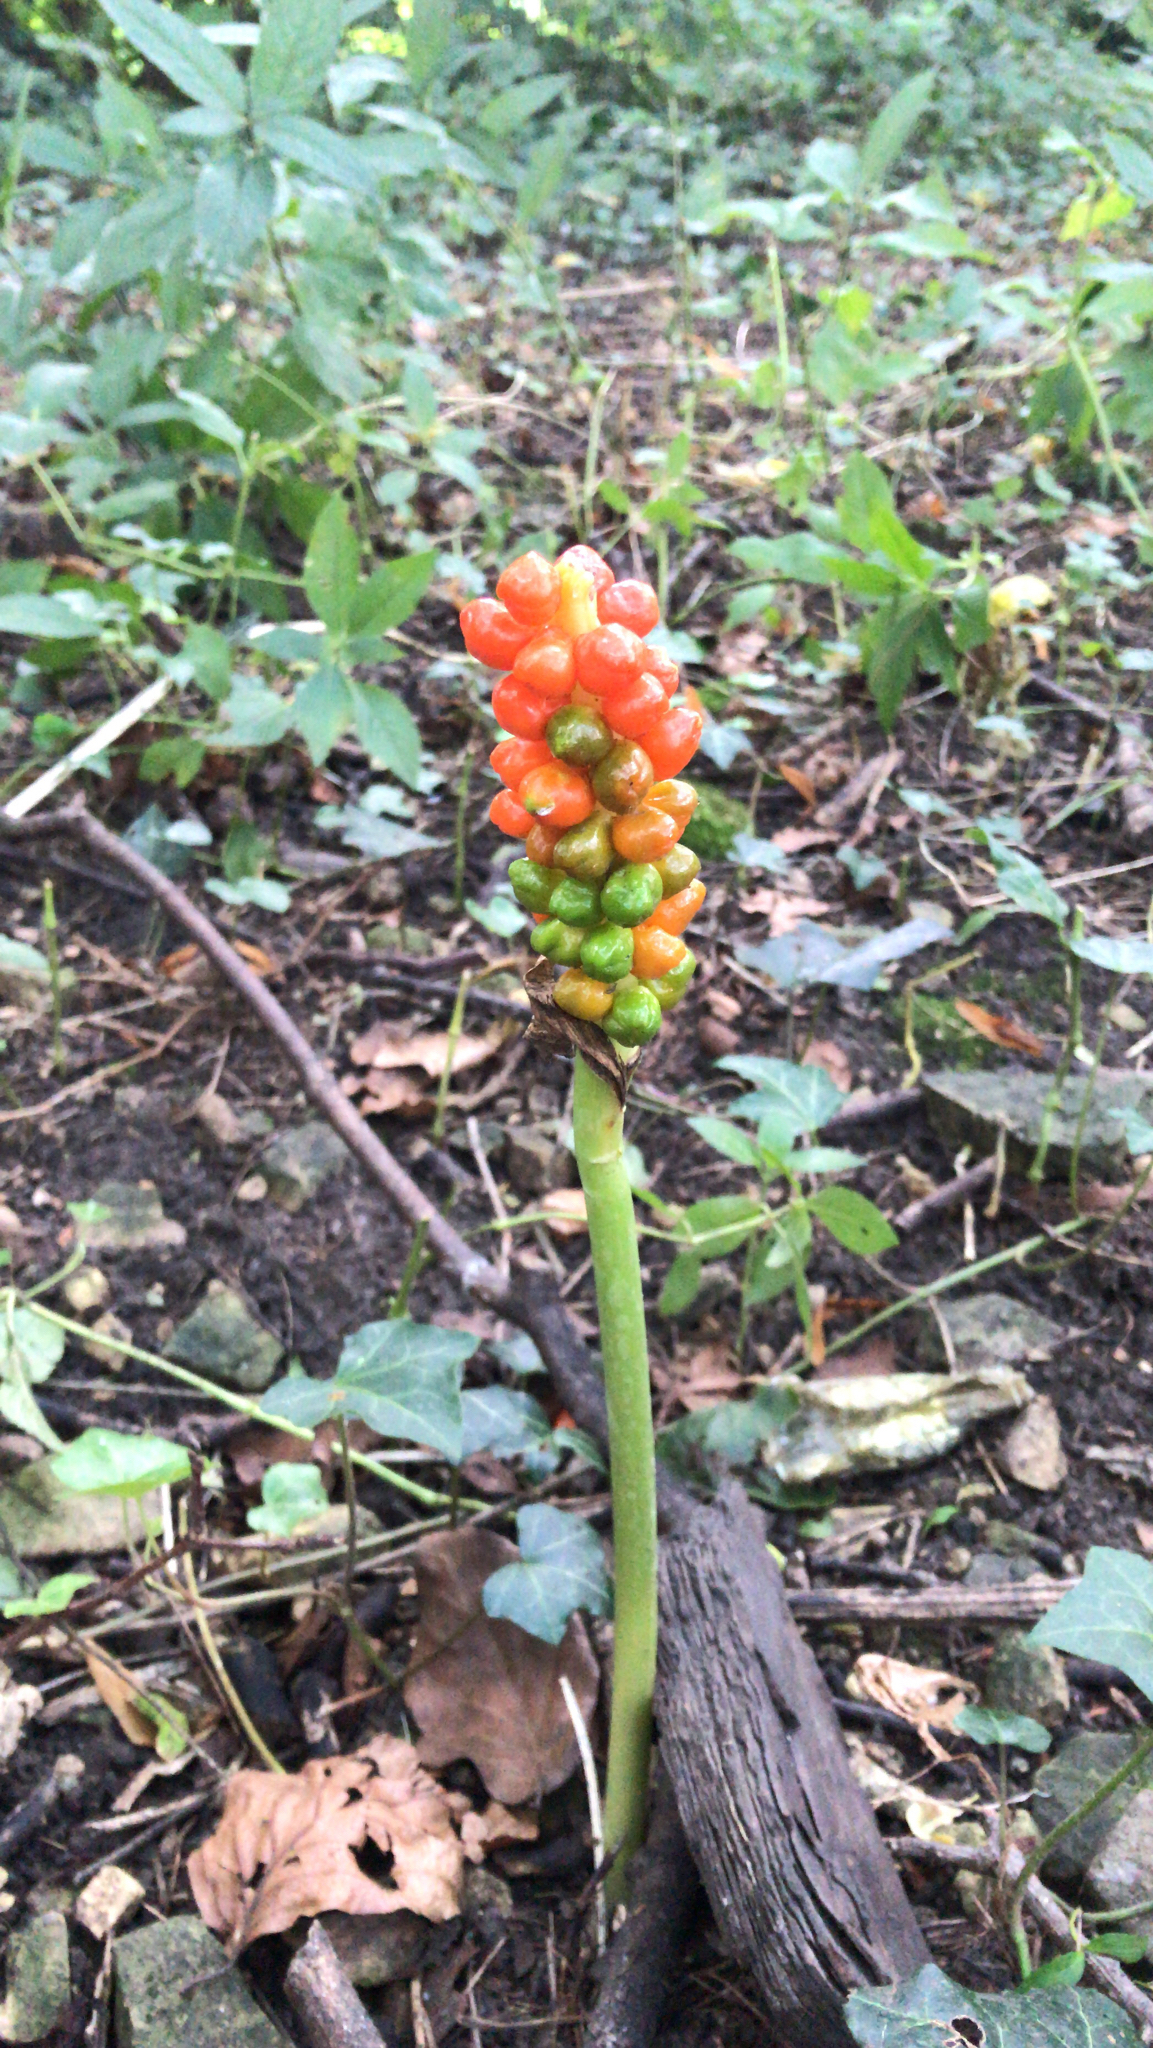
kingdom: Plantae
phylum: Tracheophyta
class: Liliopsida
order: Alismatales
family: Araceae
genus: Arum
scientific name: Arum maculatum
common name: Lords-and-ladies
